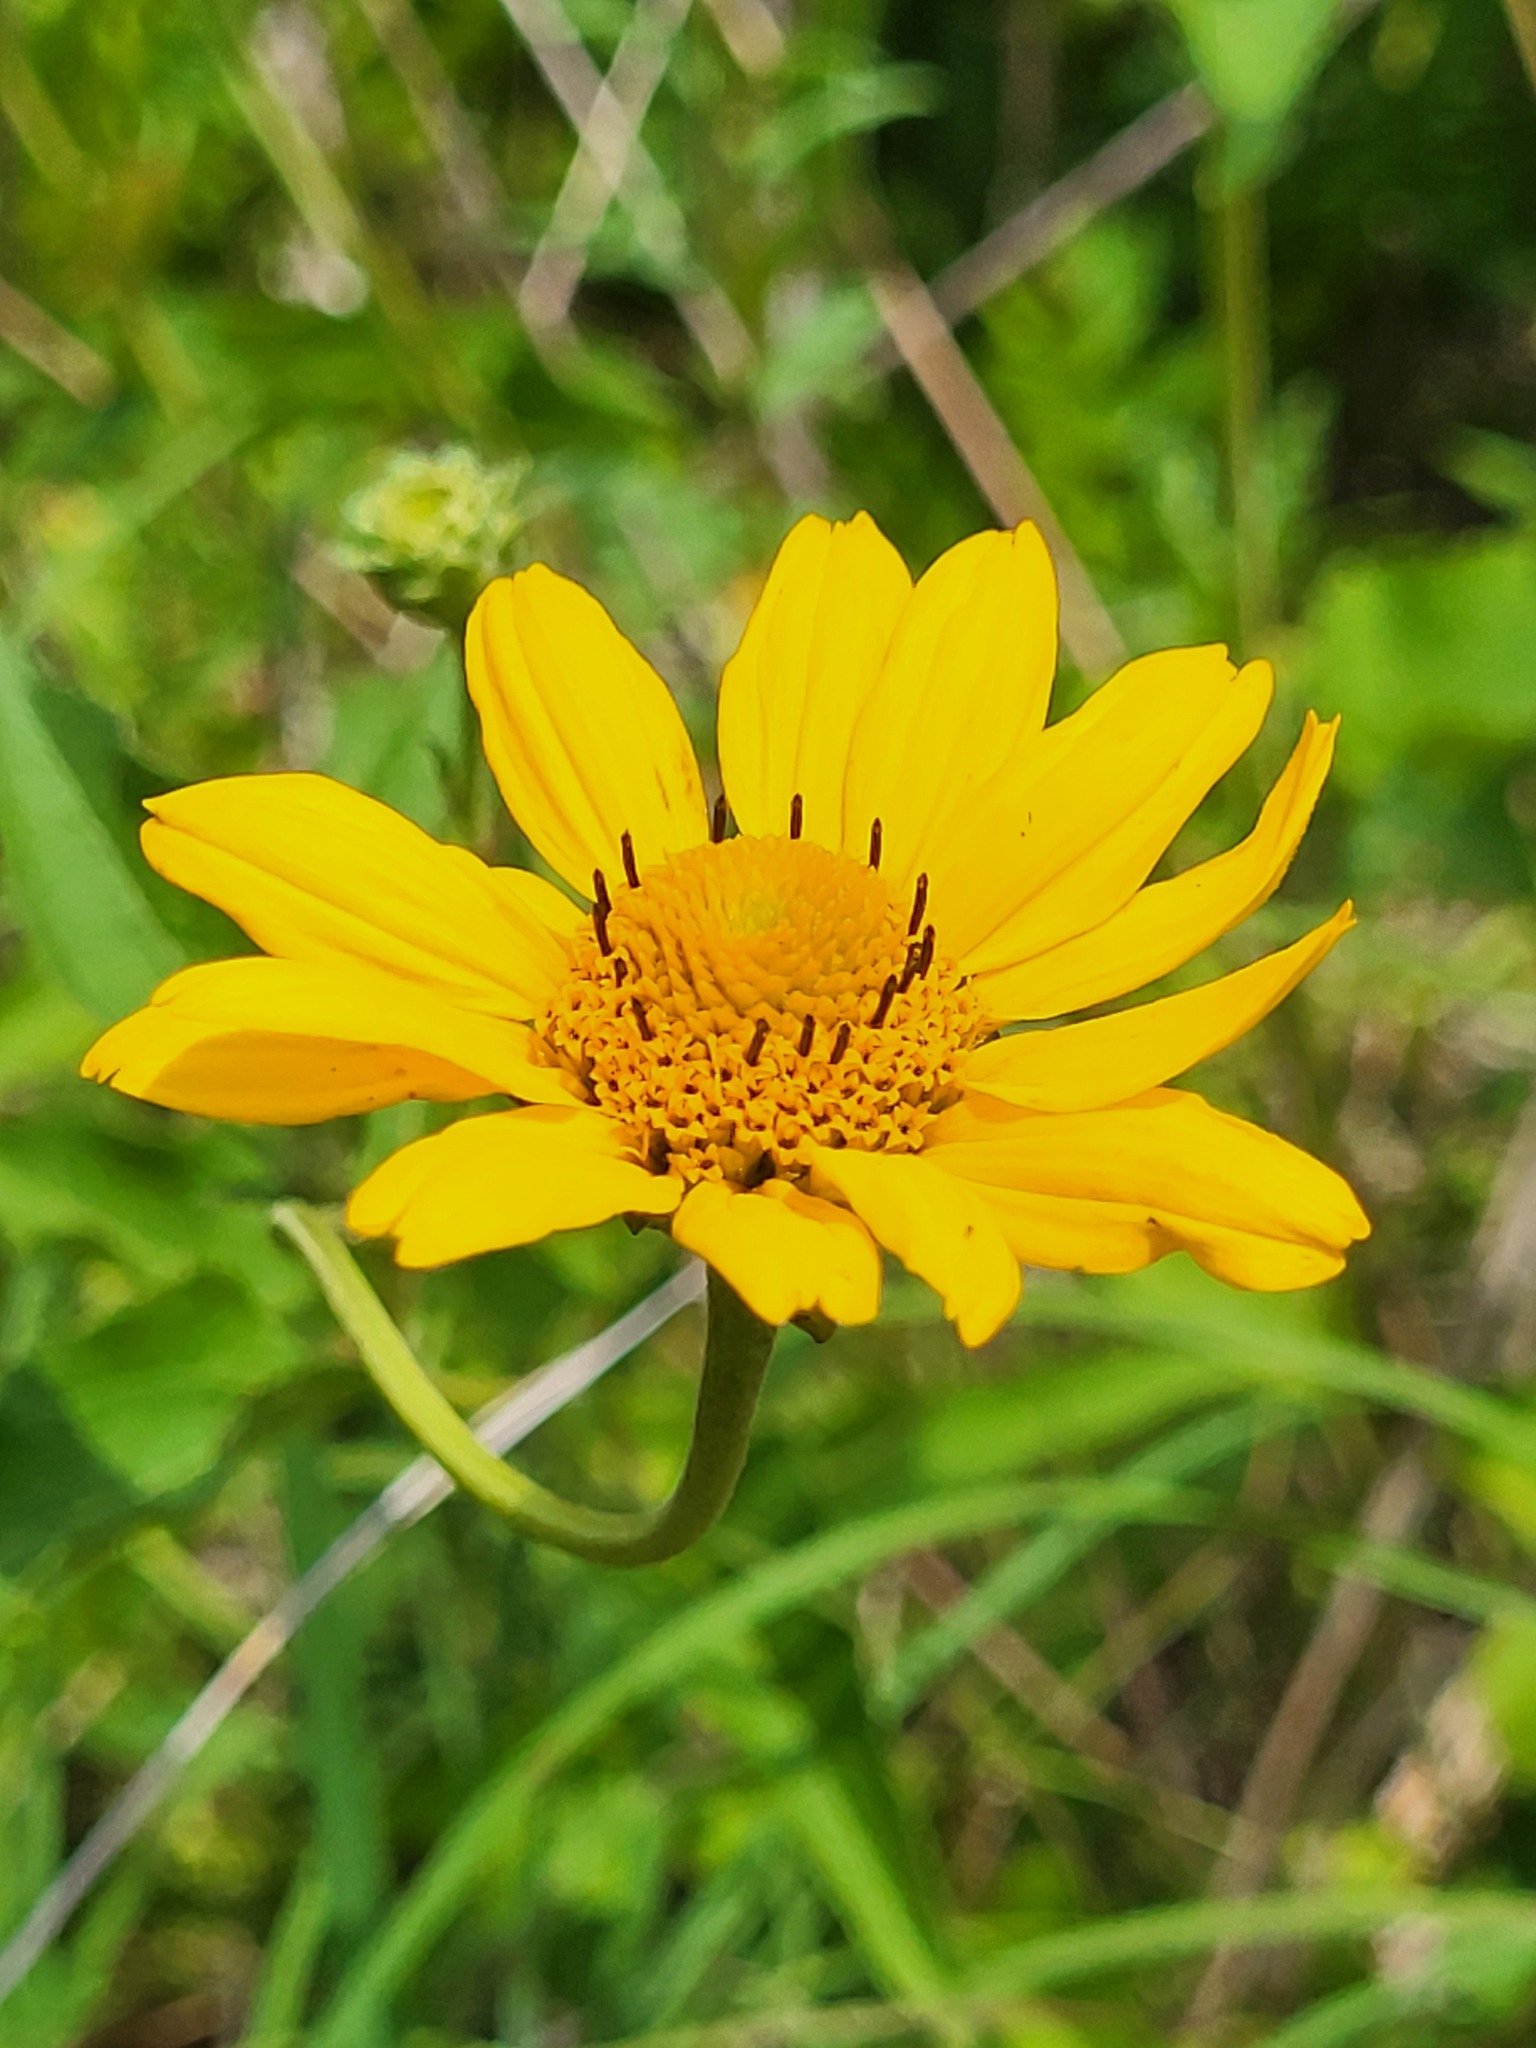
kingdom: Plantae
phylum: Tracheophyta
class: Magnoliopsida
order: Asterales
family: Asteraceae
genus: Heliopsis
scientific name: Heliopsis helianthoides
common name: False sunflower
